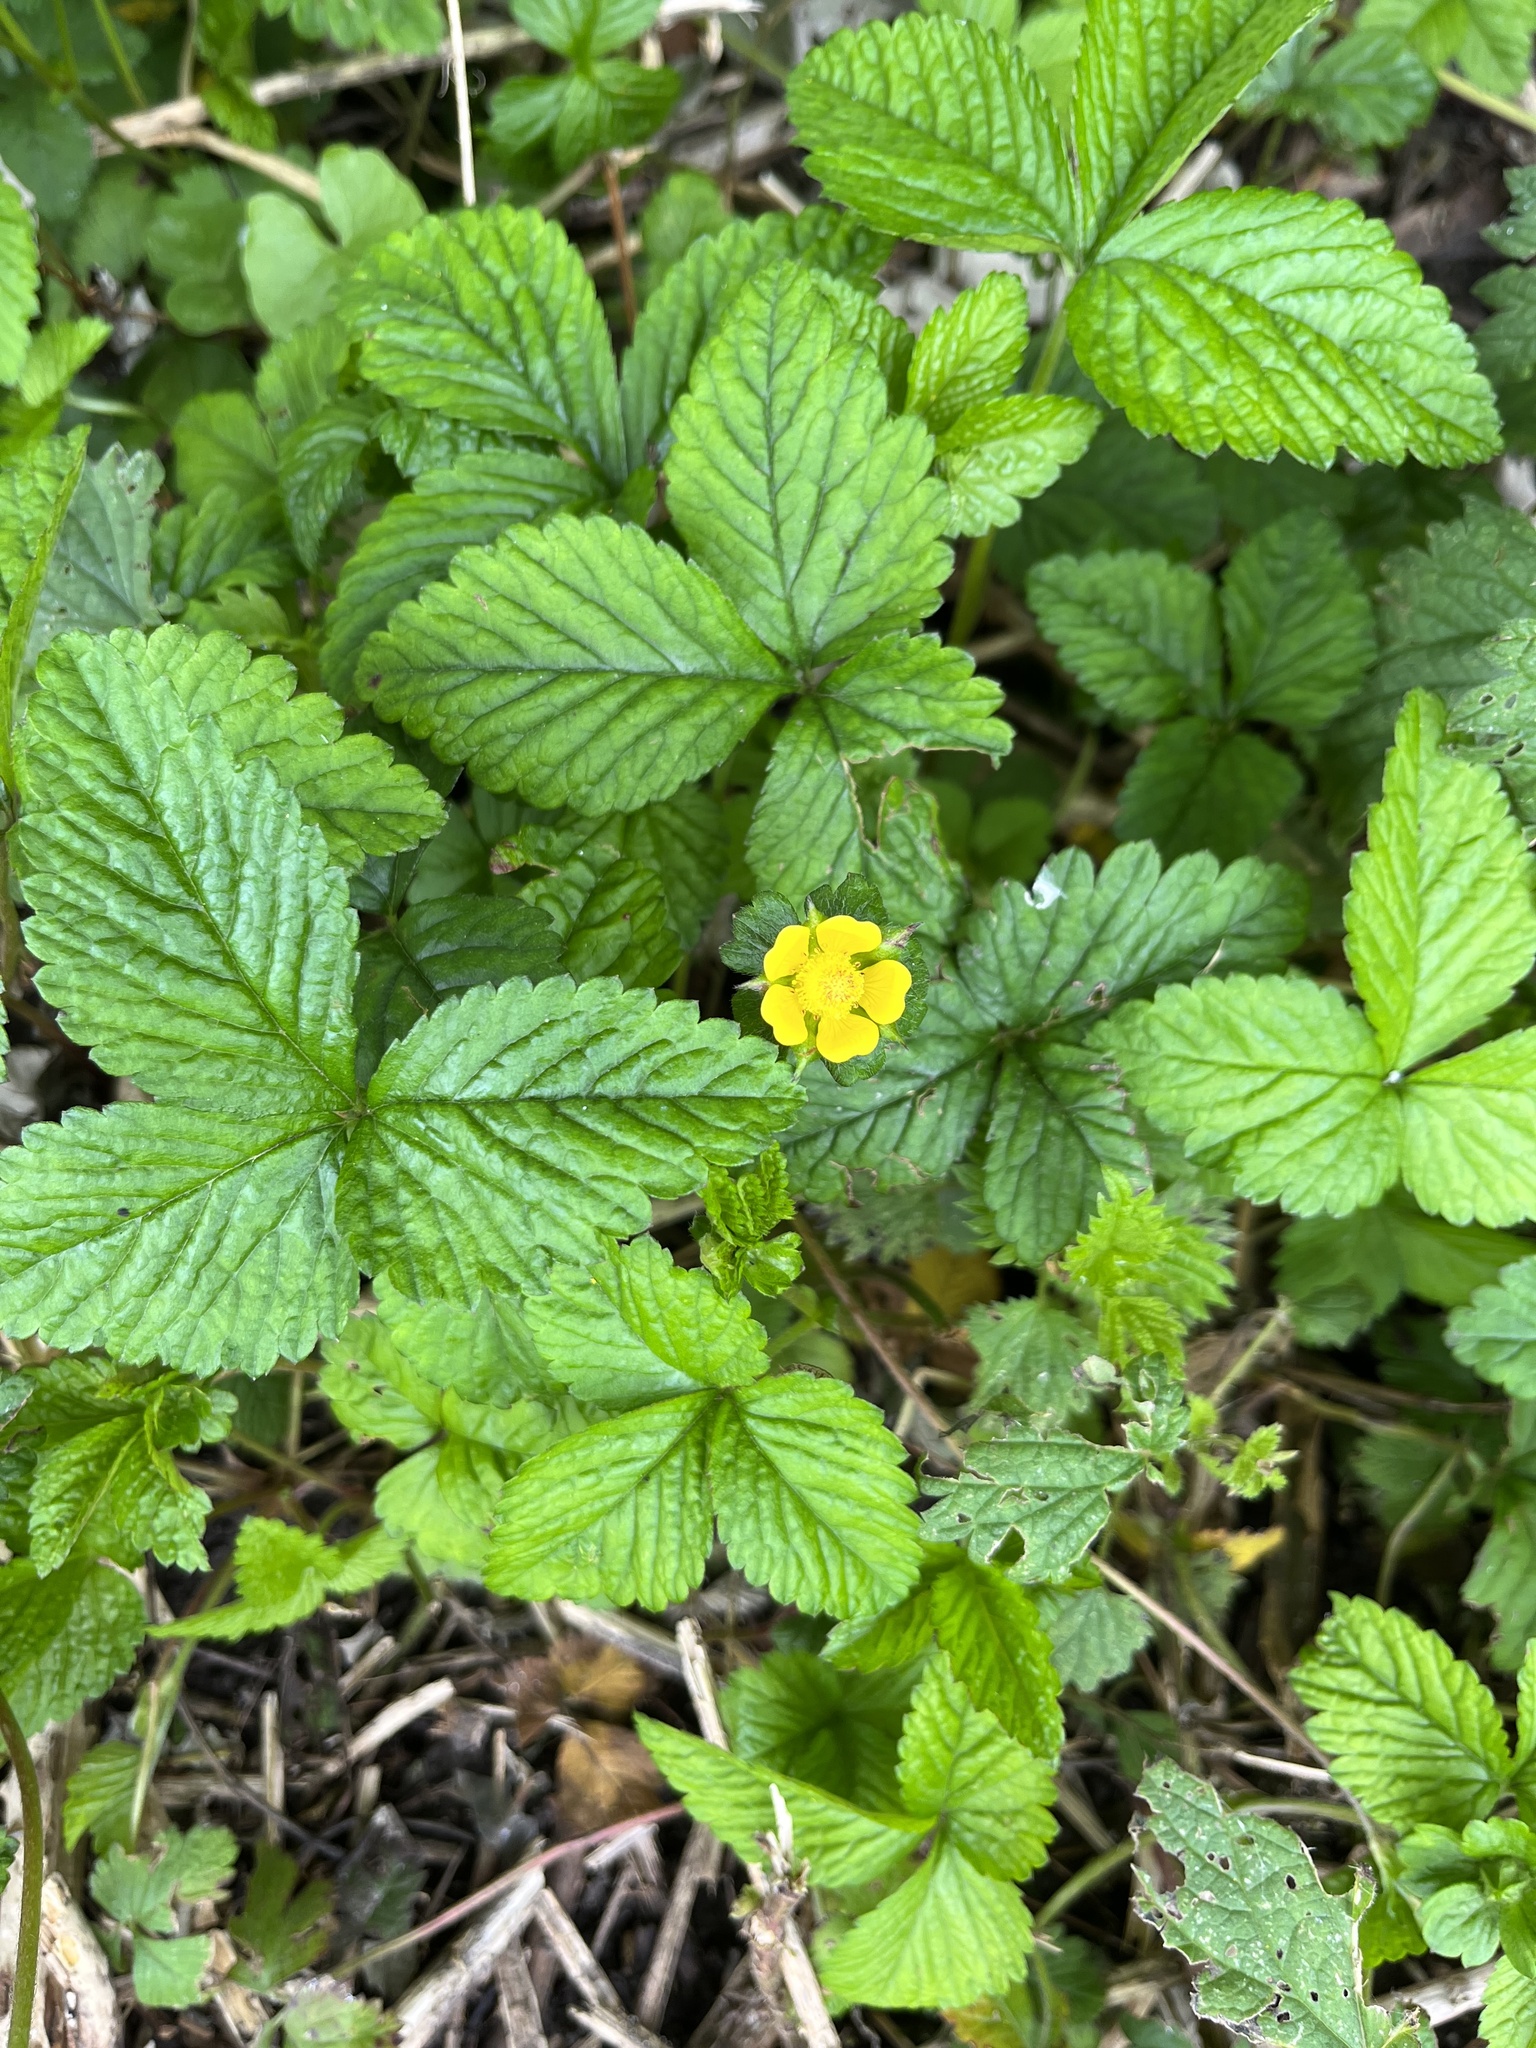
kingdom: Plantae
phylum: Tracheophyta
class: Magnoliopsida
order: Rosales
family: Rosaceae
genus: Potentilla
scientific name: Potentilla indica
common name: Yellow-flowered strawberry
